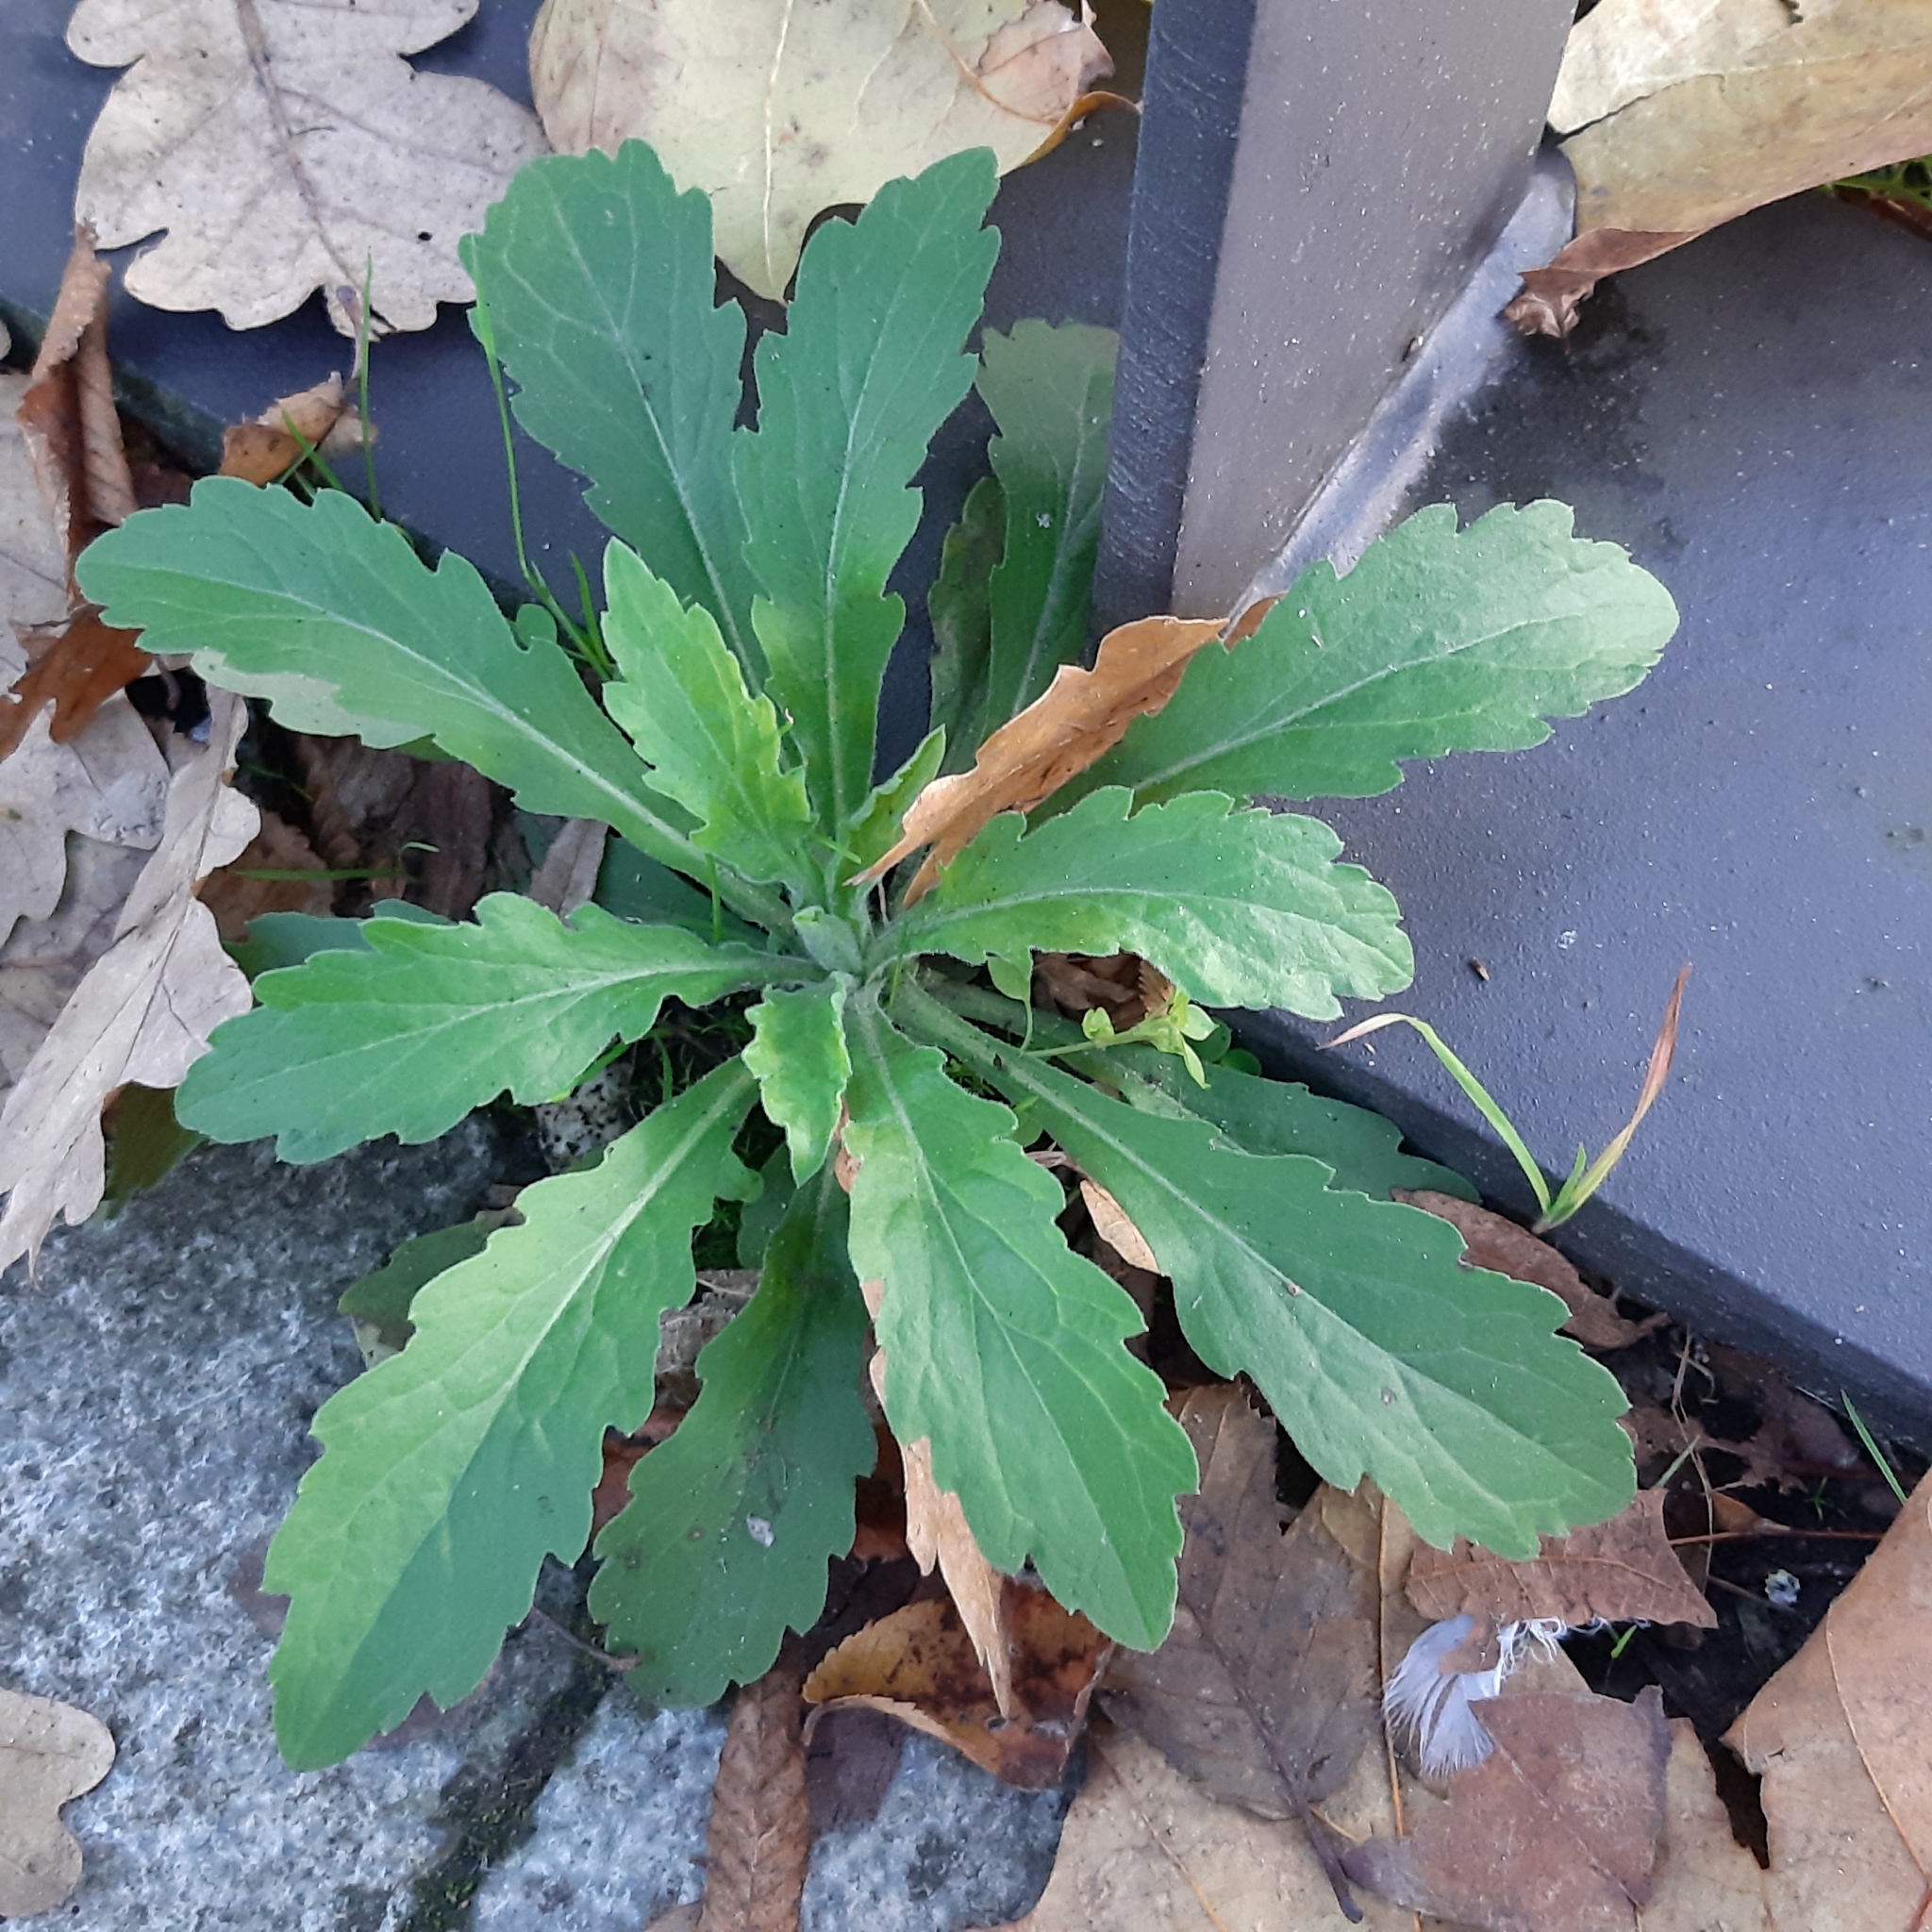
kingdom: Plantae
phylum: Tracheophyta
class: Magnoliopsida
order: Asterales
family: Asteraceae
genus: Erigeron
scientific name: Erigeron sumatrensis
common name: Daisy
